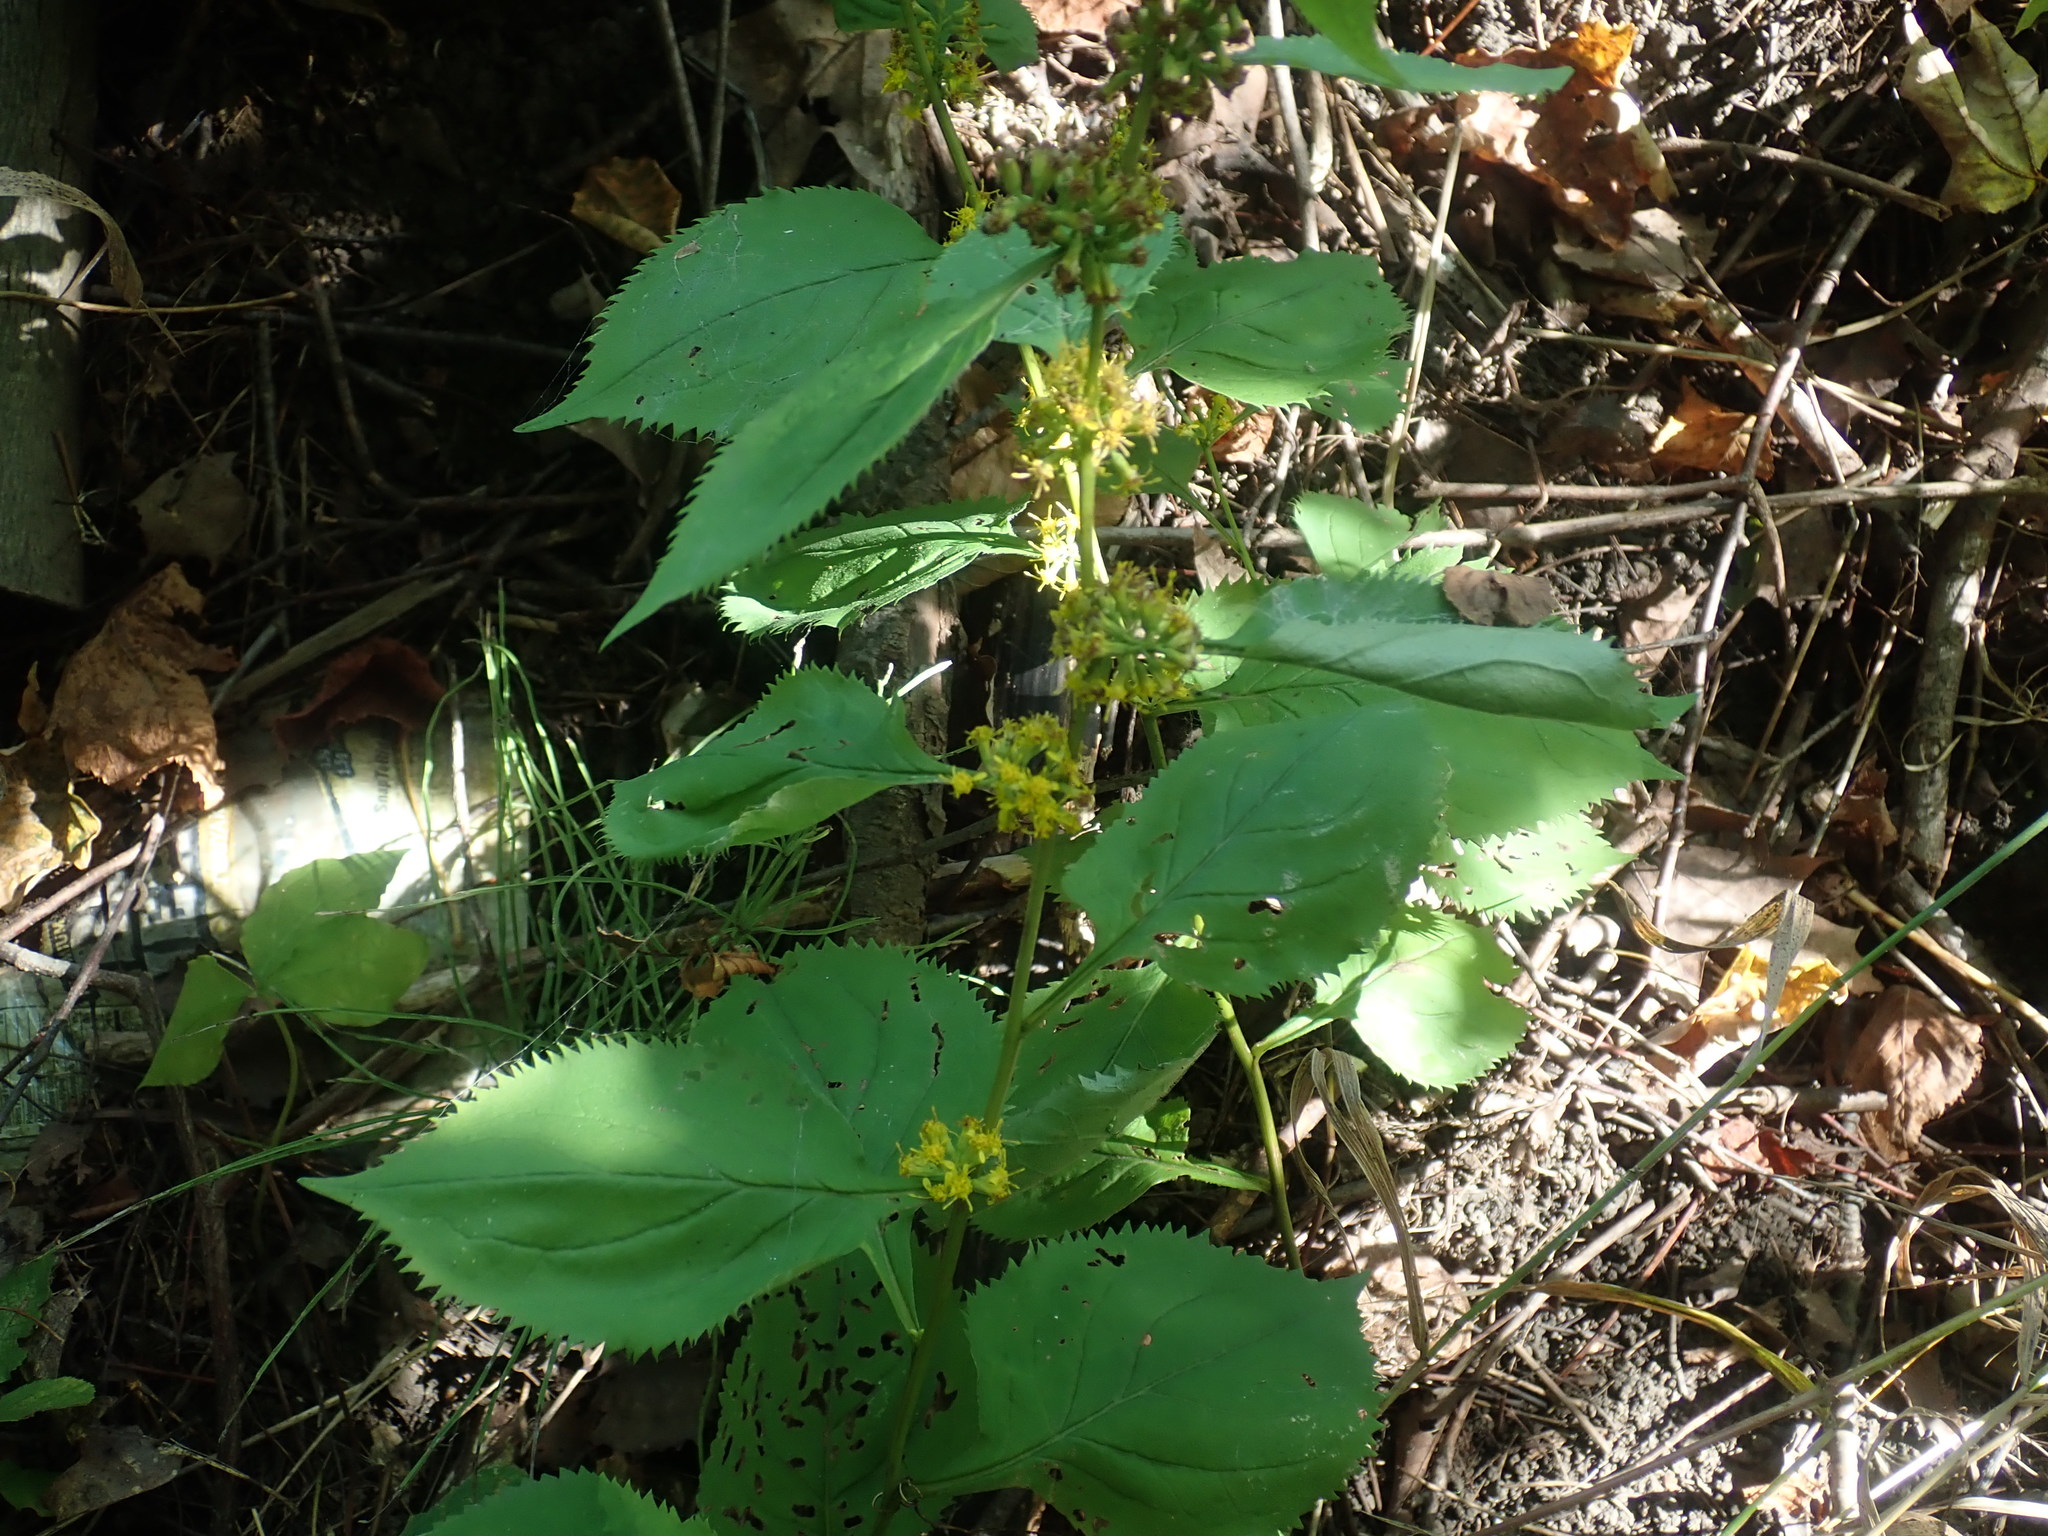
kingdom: Plantae
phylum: Tracheophyta
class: Magnoliopsida
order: Asterales
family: Asteraceae
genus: Solidago
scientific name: Solidago flexicaulis
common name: Zig-zag goldenrod
